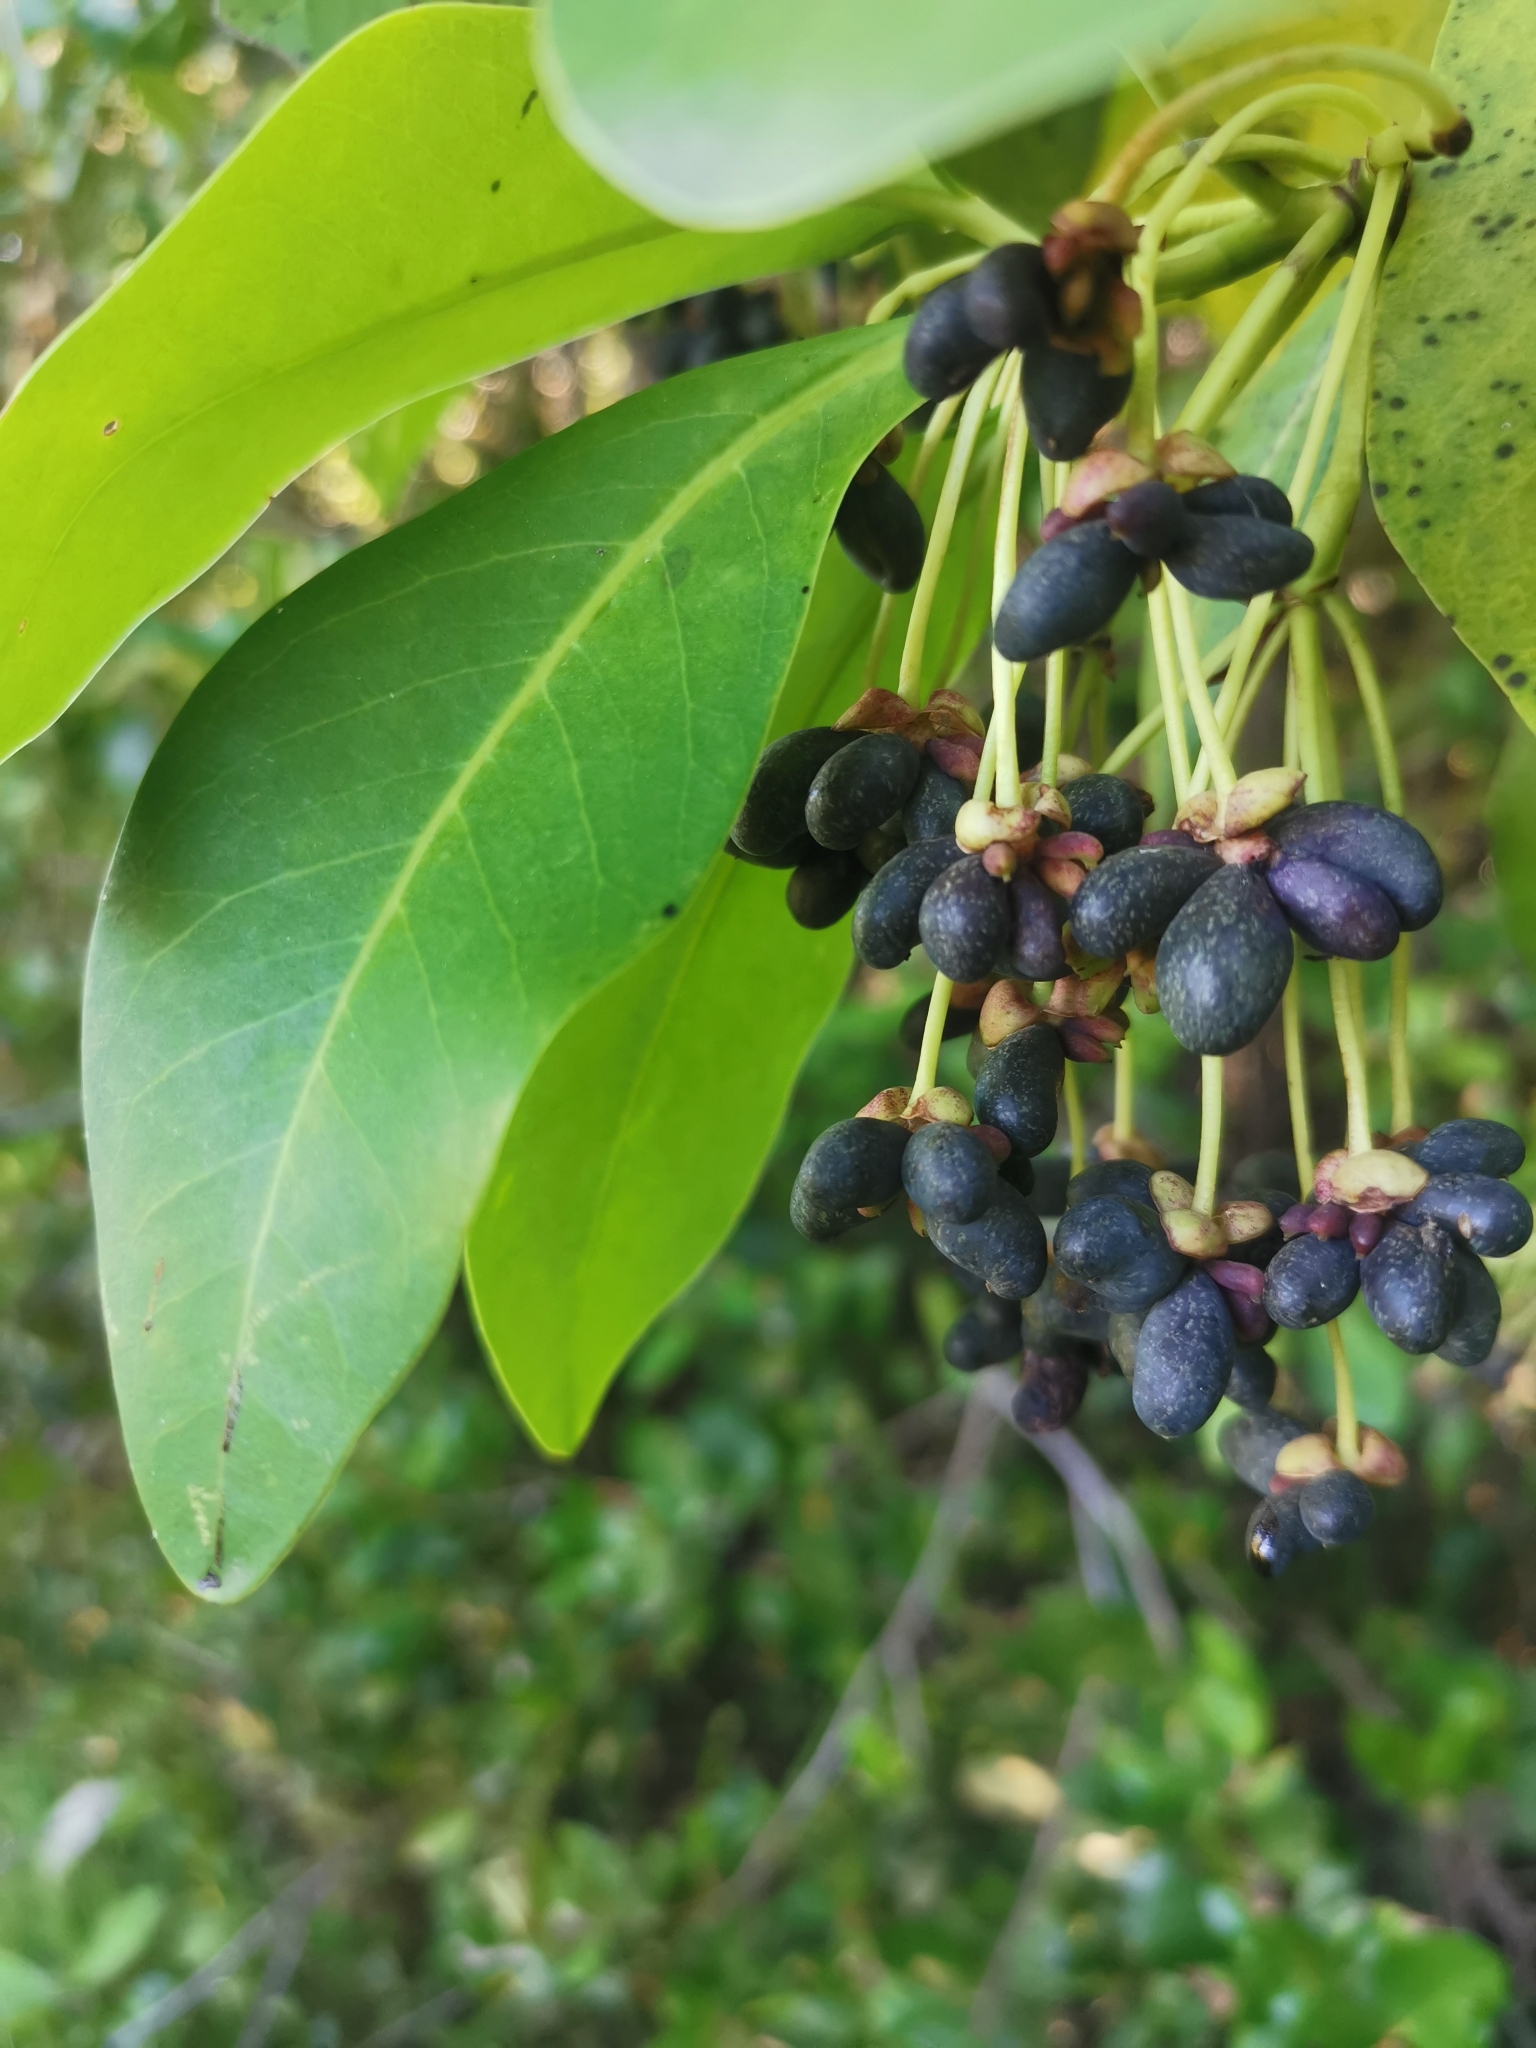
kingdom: Plantae
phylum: Tracheophyta
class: Magnoliopsida
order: Canellales
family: Winteraceae
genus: Drimys
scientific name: Drimys winteri
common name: Winter's-bark
